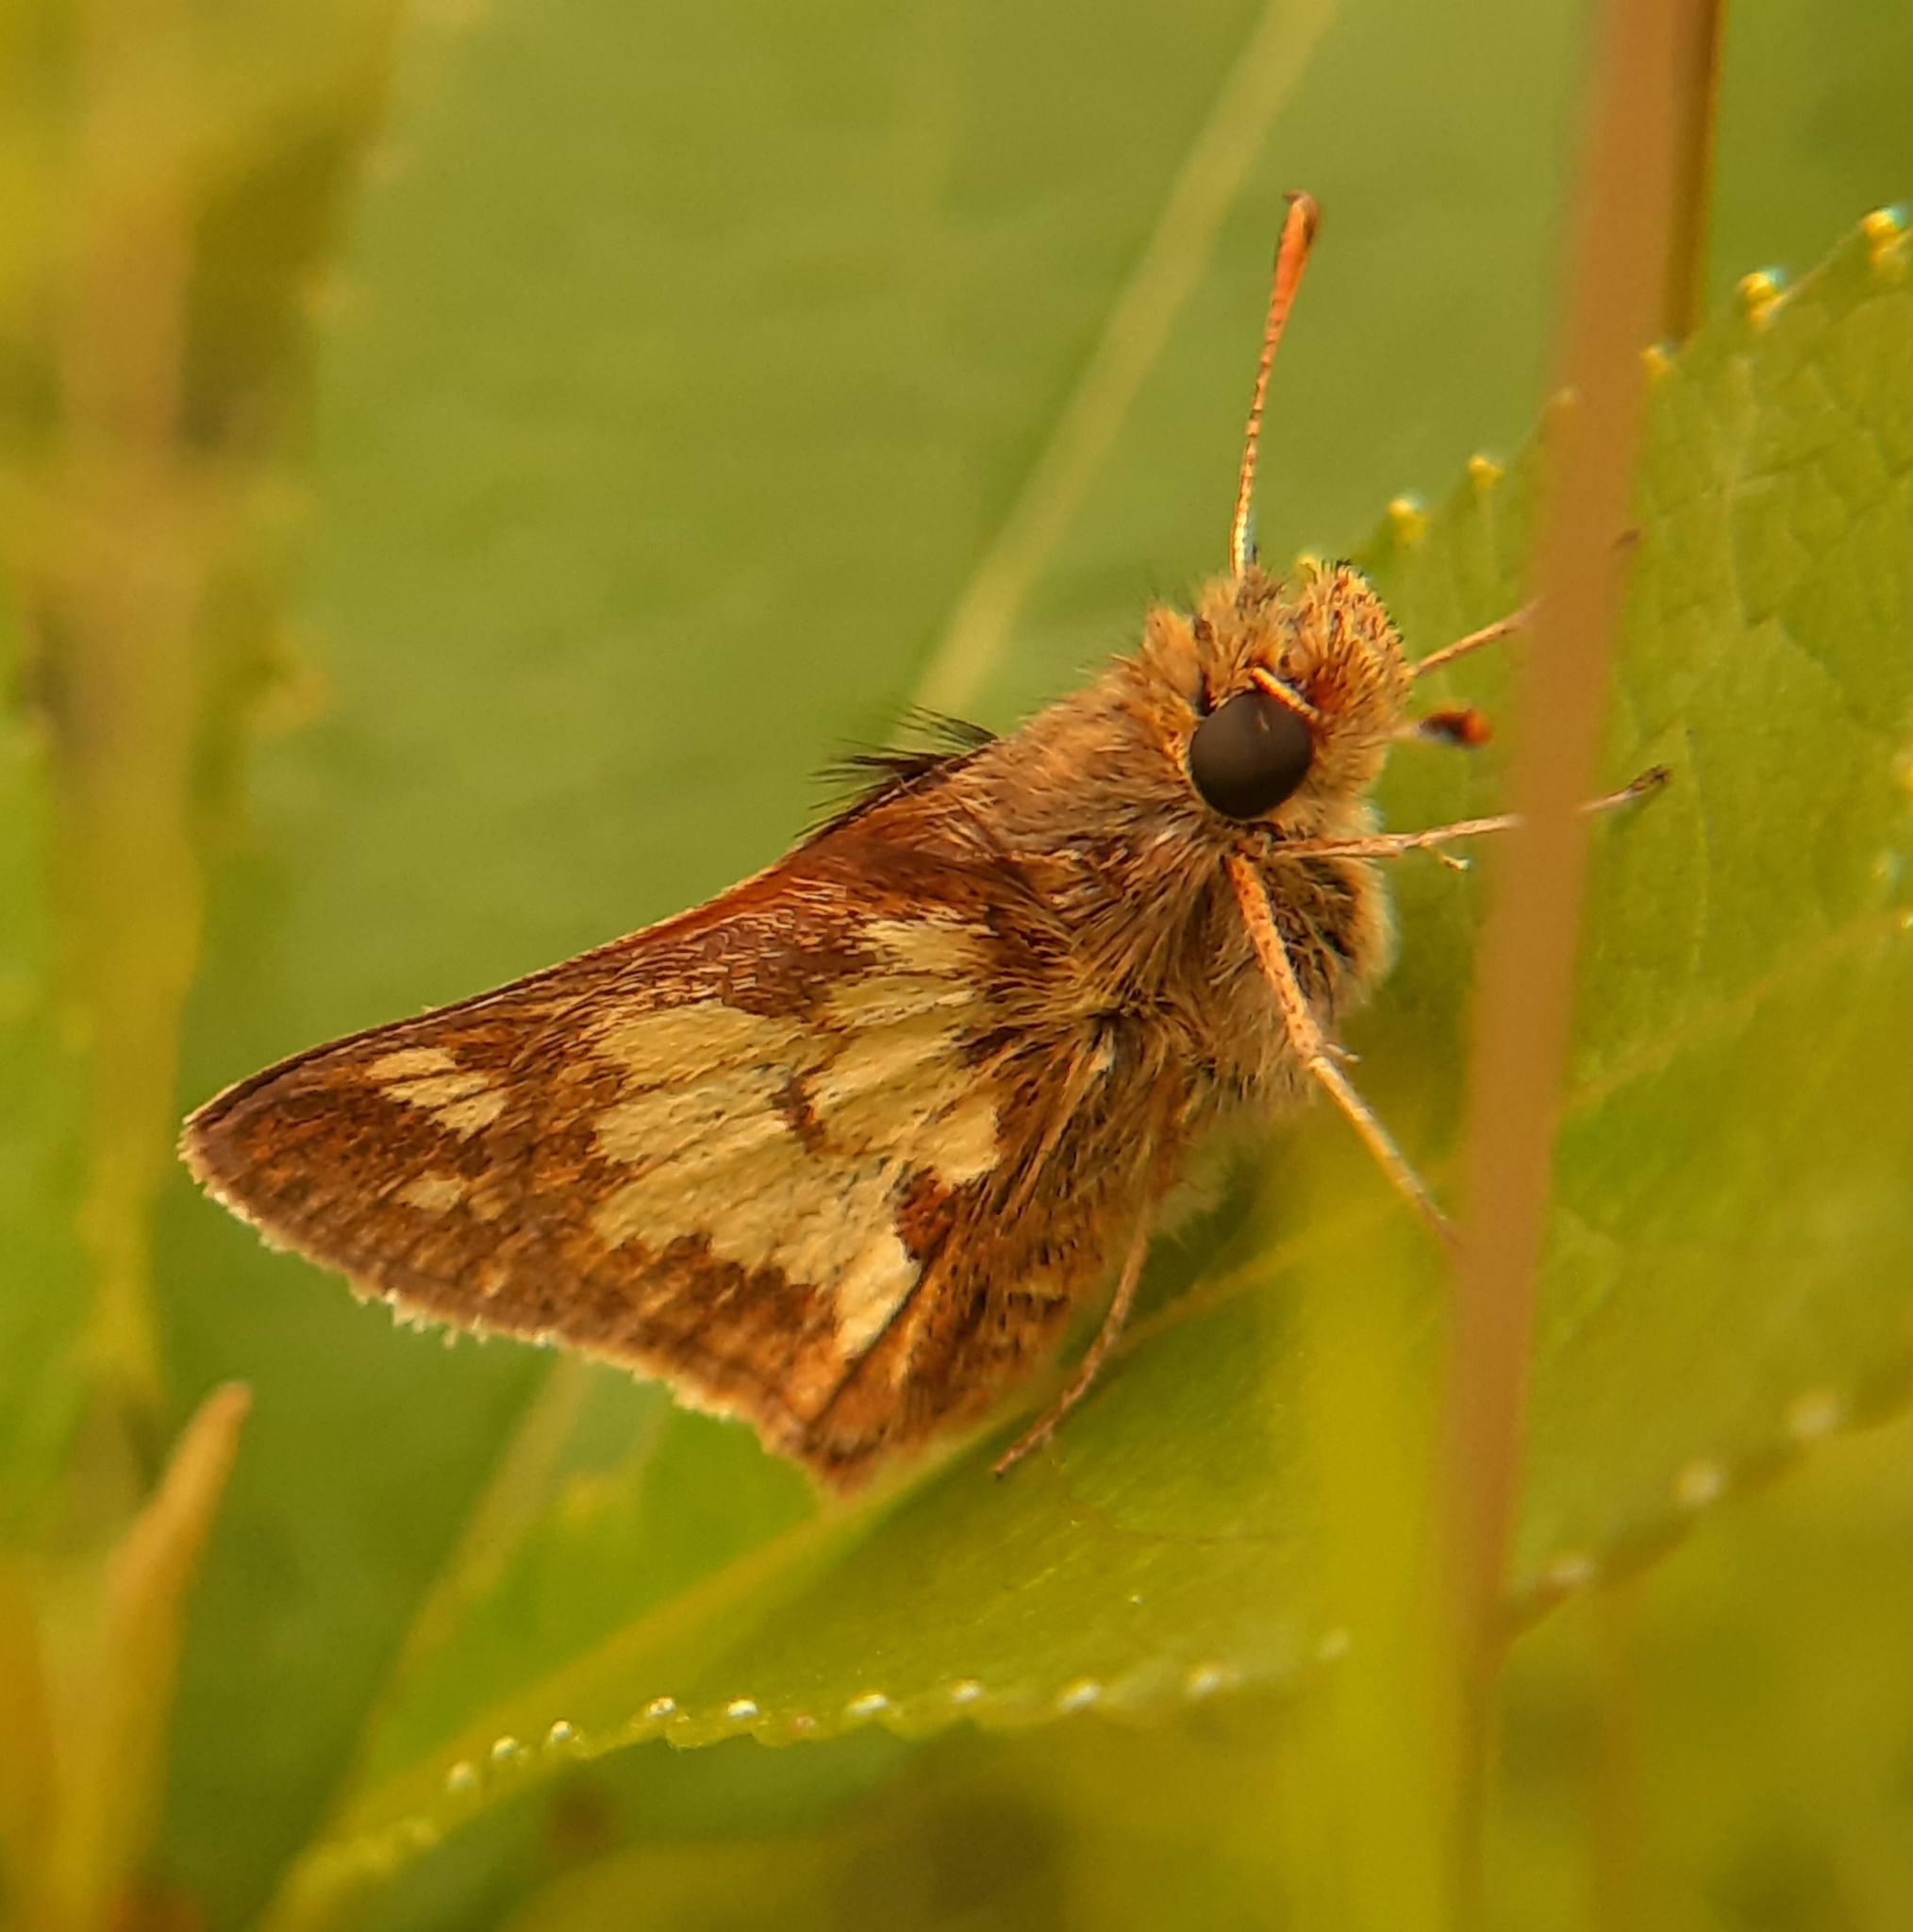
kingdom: Animalia
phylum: Arthropoda
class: Insecta
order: Lepidoptera
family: Hesperiidae
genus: Polites
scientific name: Polites coras
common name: Peck's skipper
